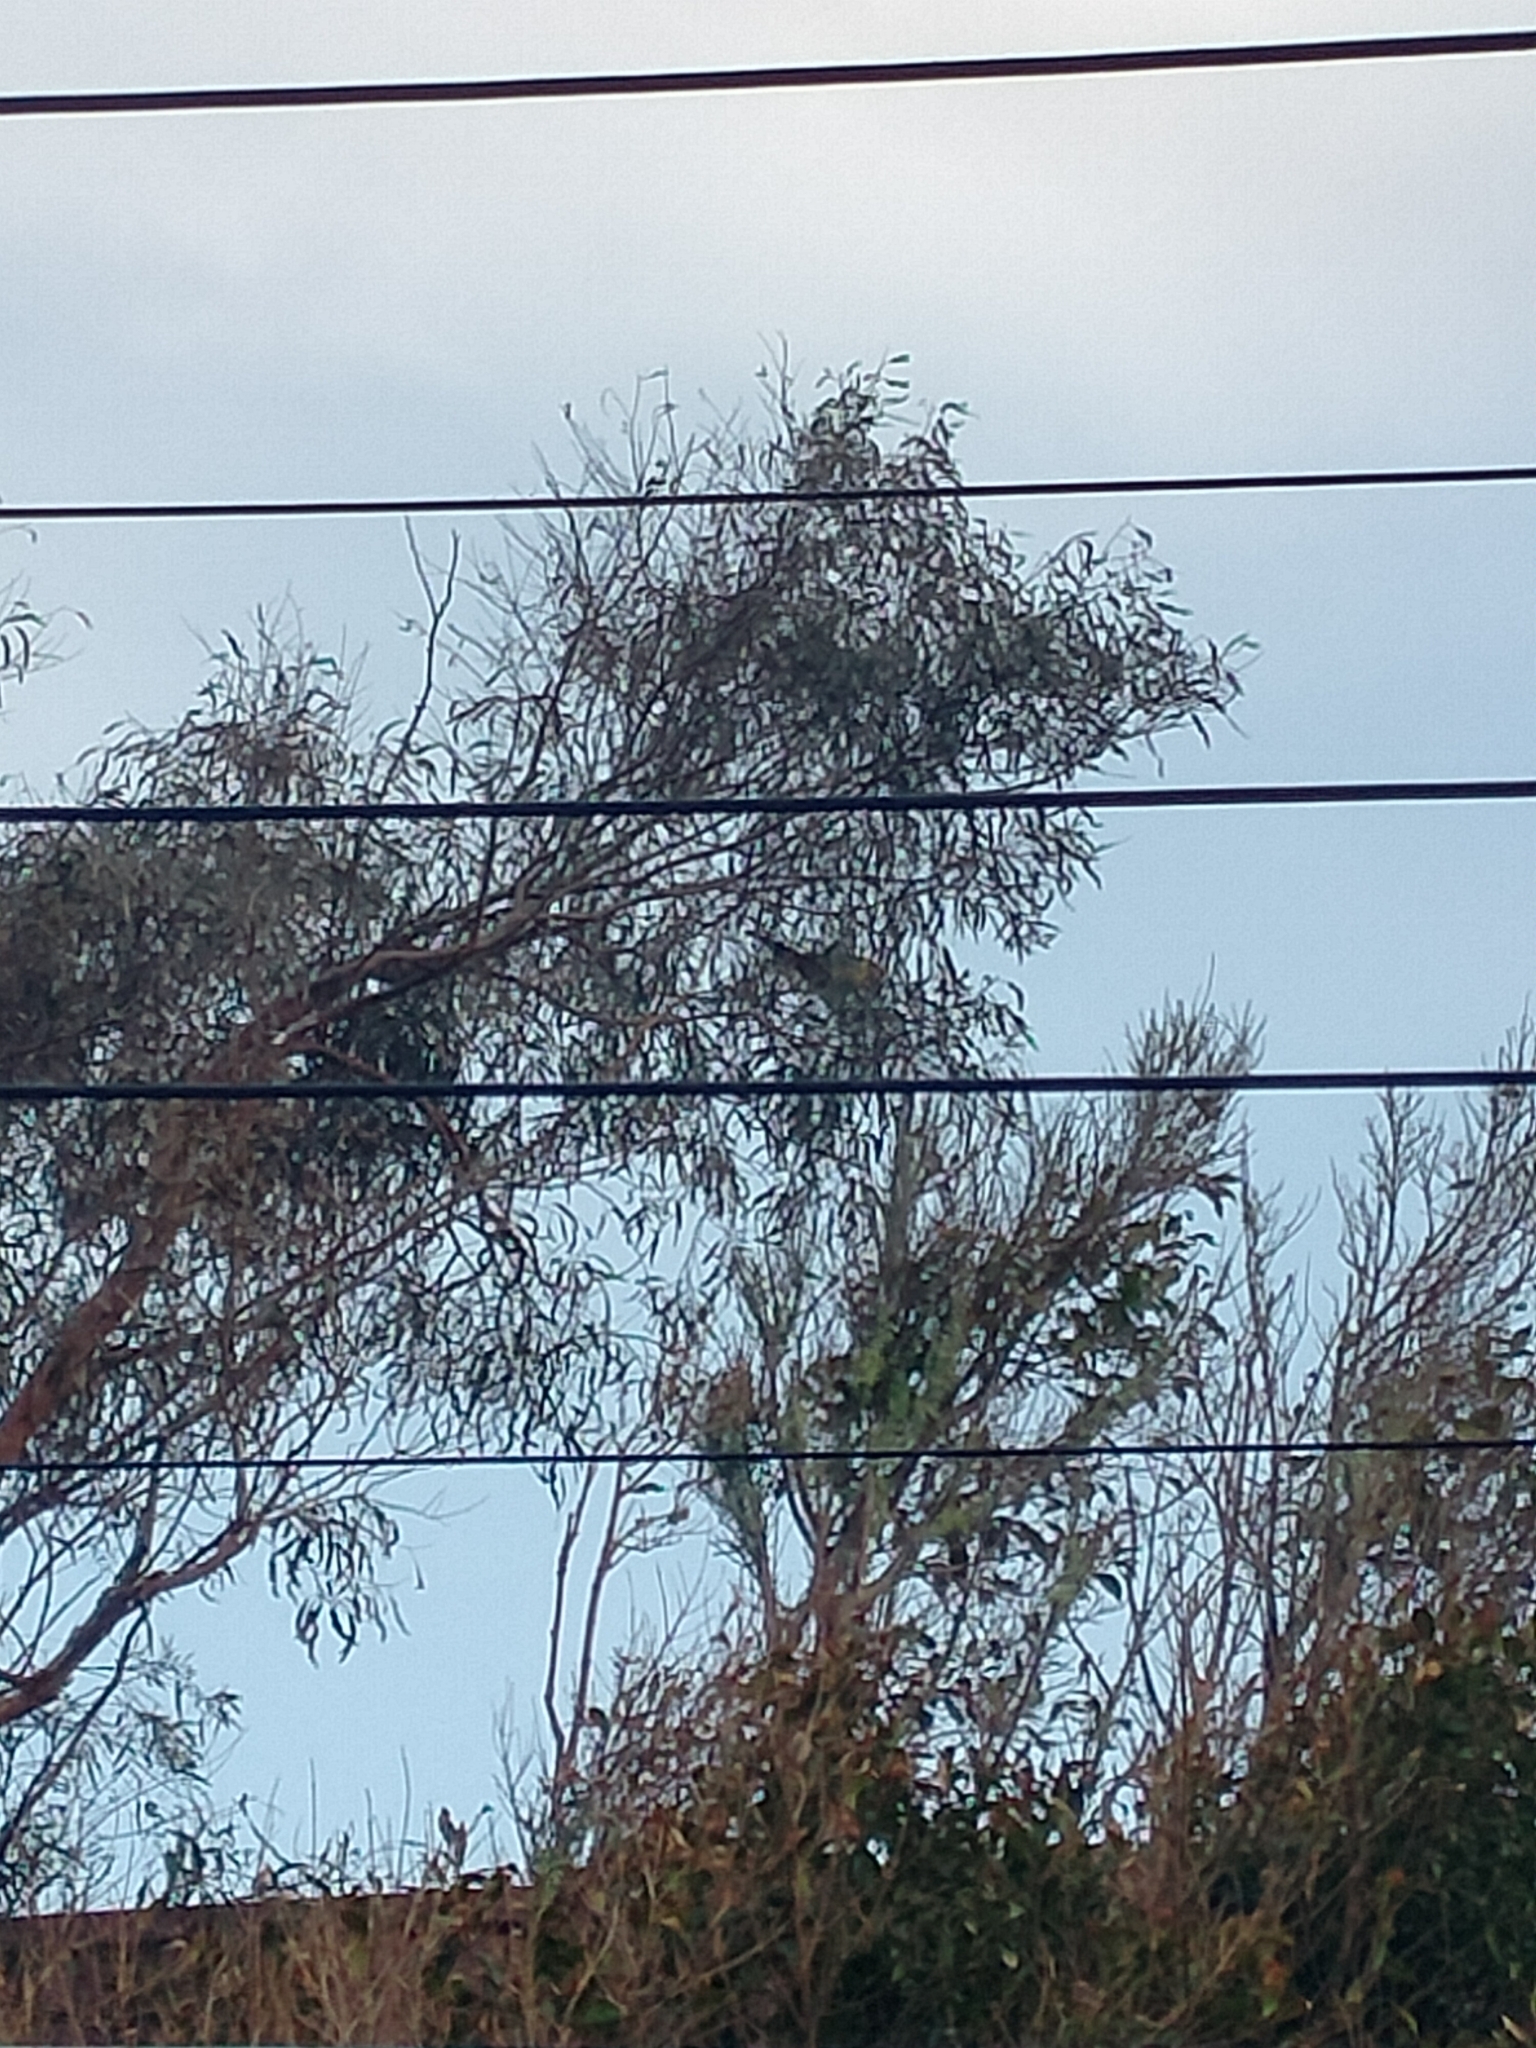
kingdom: Animalia
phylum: Chordata
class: Aves
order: Psittaciformes
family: Psittacidae
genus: Platycercus
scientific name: Platycercus eximius
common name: Eastern rosella
